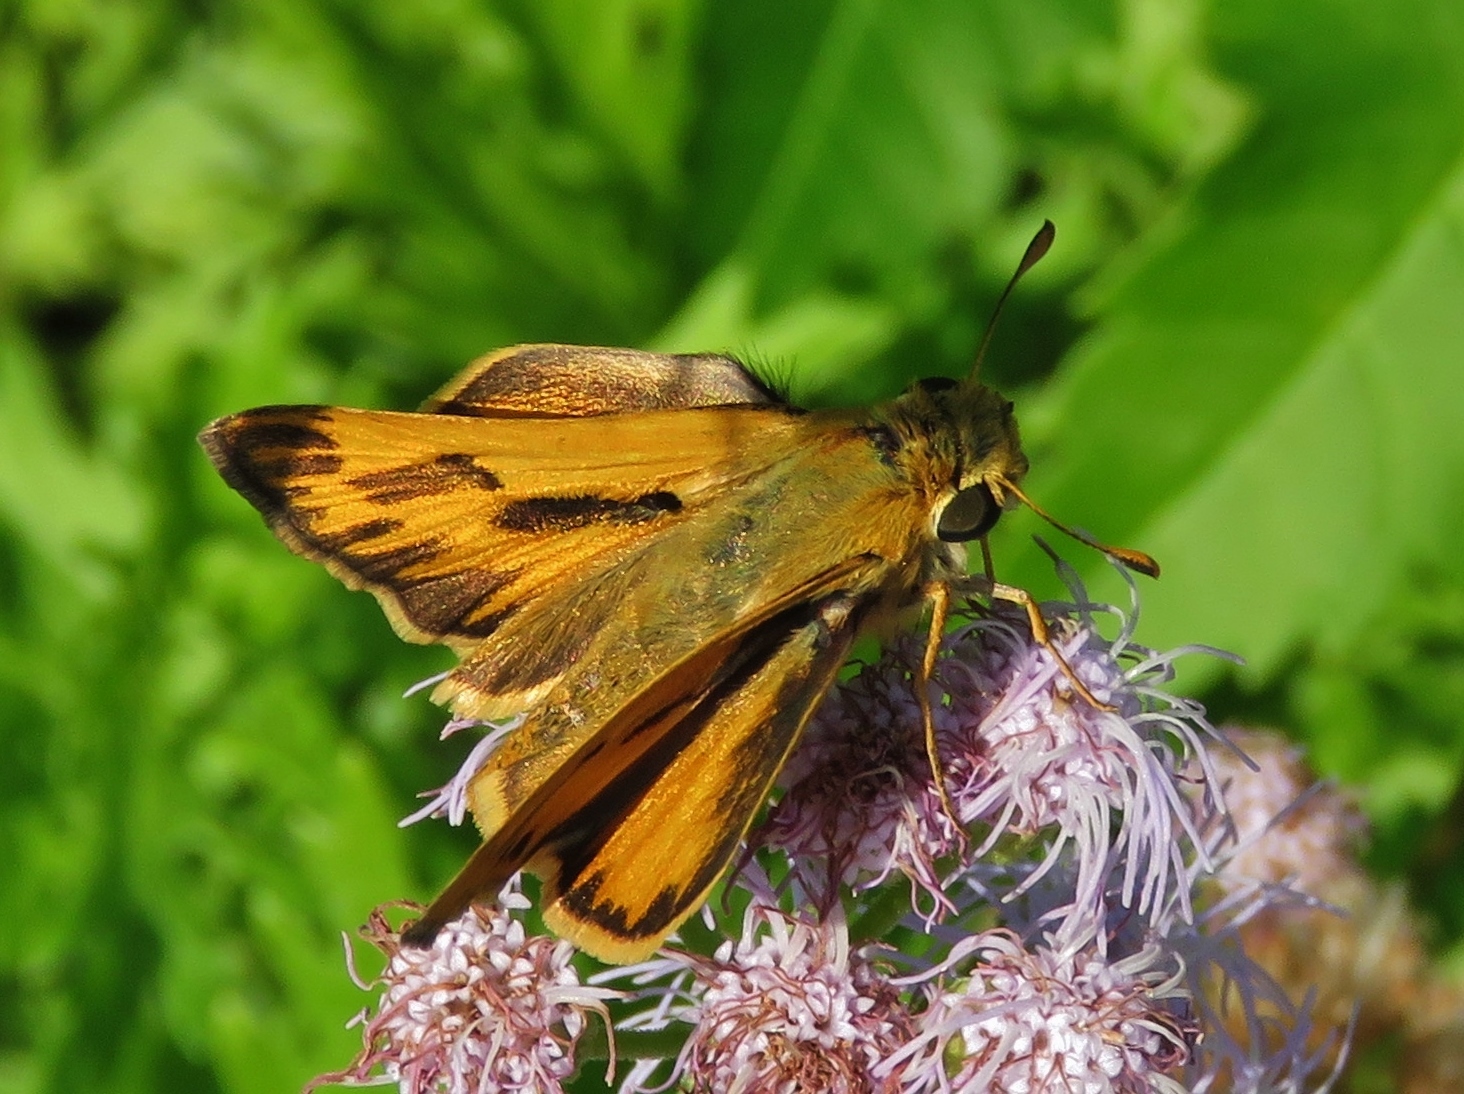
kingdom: Animalia
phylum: Arthropoda
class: Insecta
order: Lepidoptera
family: Hesperiidae
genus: Hylephila
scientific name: Hylephila phyleus
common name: Fiery skipper
